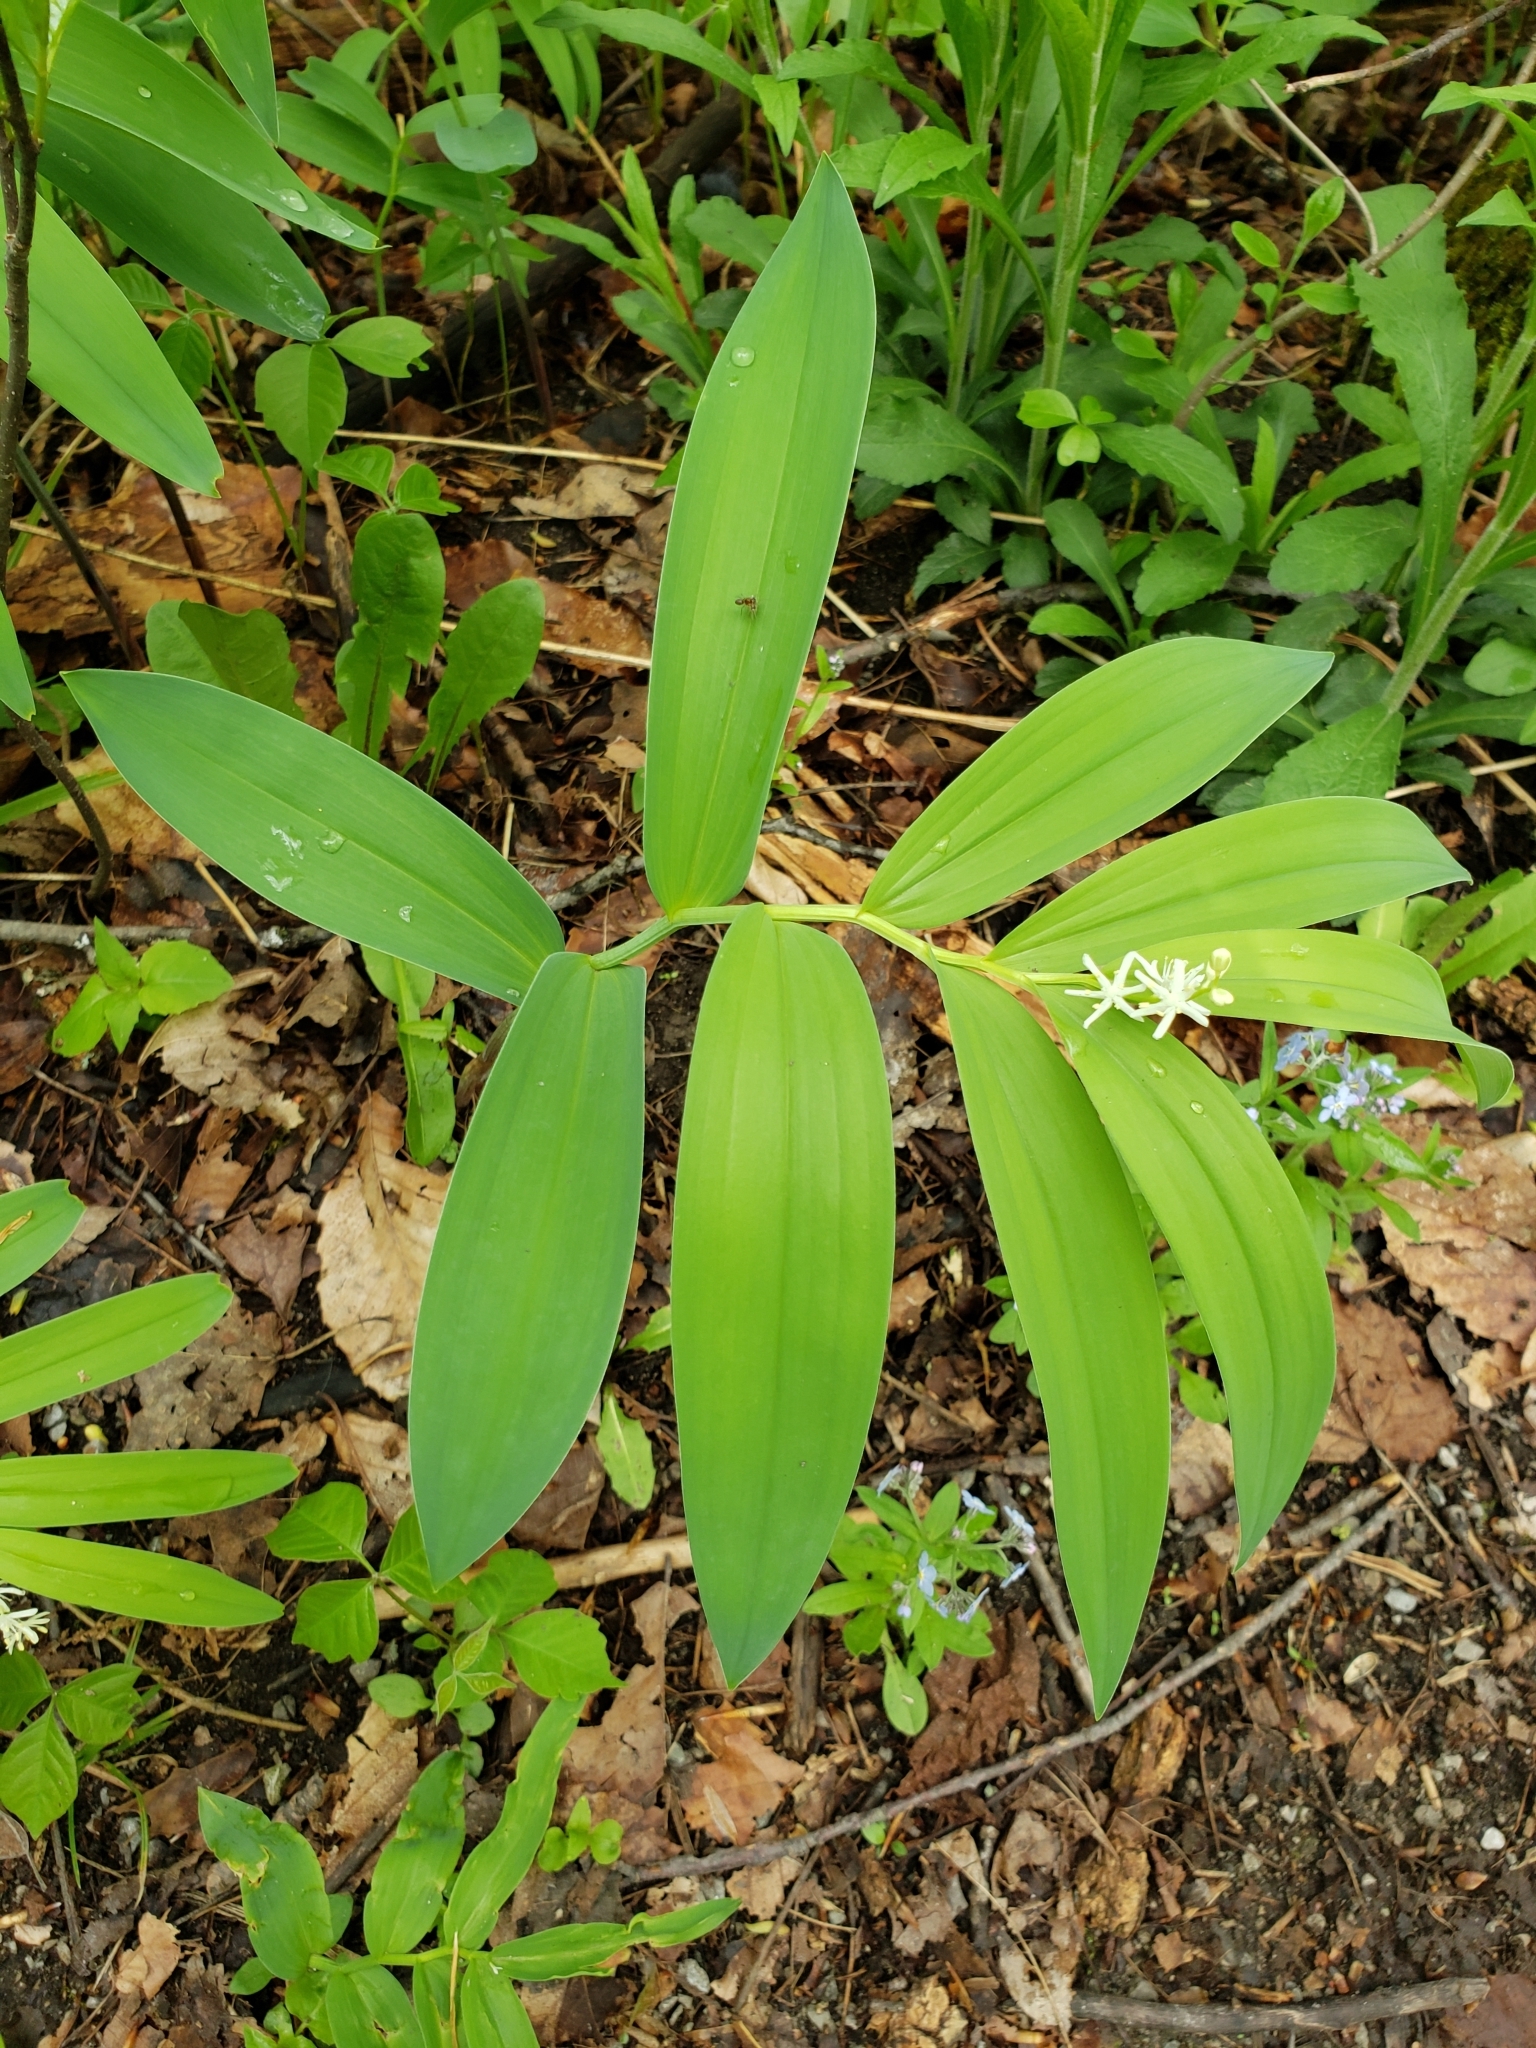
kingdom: Plantae
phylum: Tracheophyta
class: Liliopsida
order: Asparagales
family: Asparagaceae
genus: Maianthemum
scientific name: Maianthemum stellatum
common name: Little false solomon's seal
